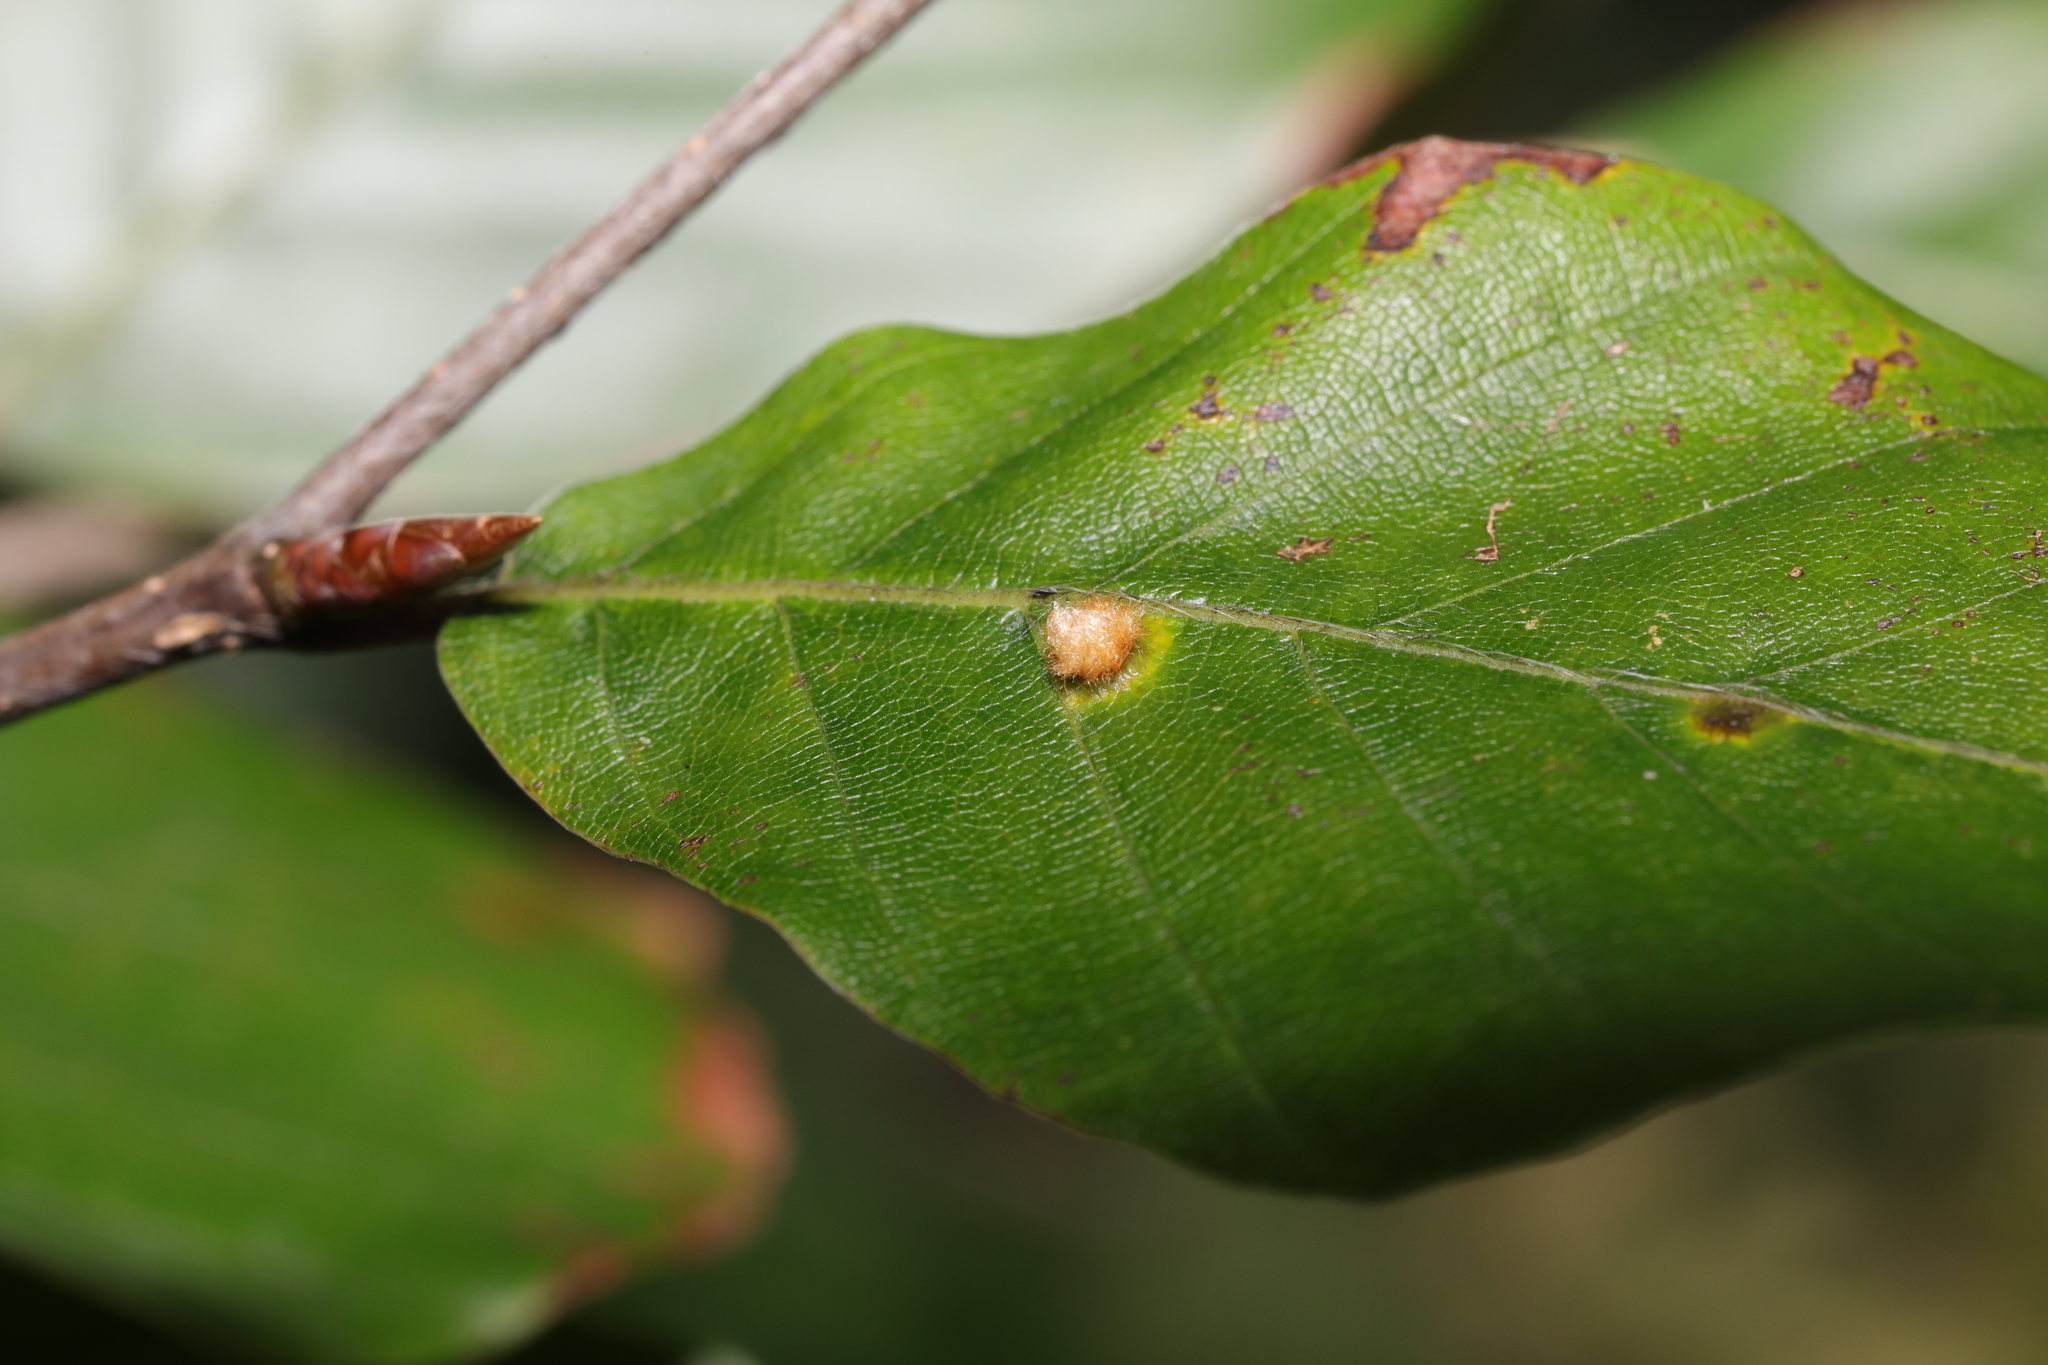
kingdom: Animalia
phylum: Arthropoda
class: Insecta
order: Diptera
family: Cecidomyiidae
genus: Hartigiola
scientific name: Hartigiola annulipes
